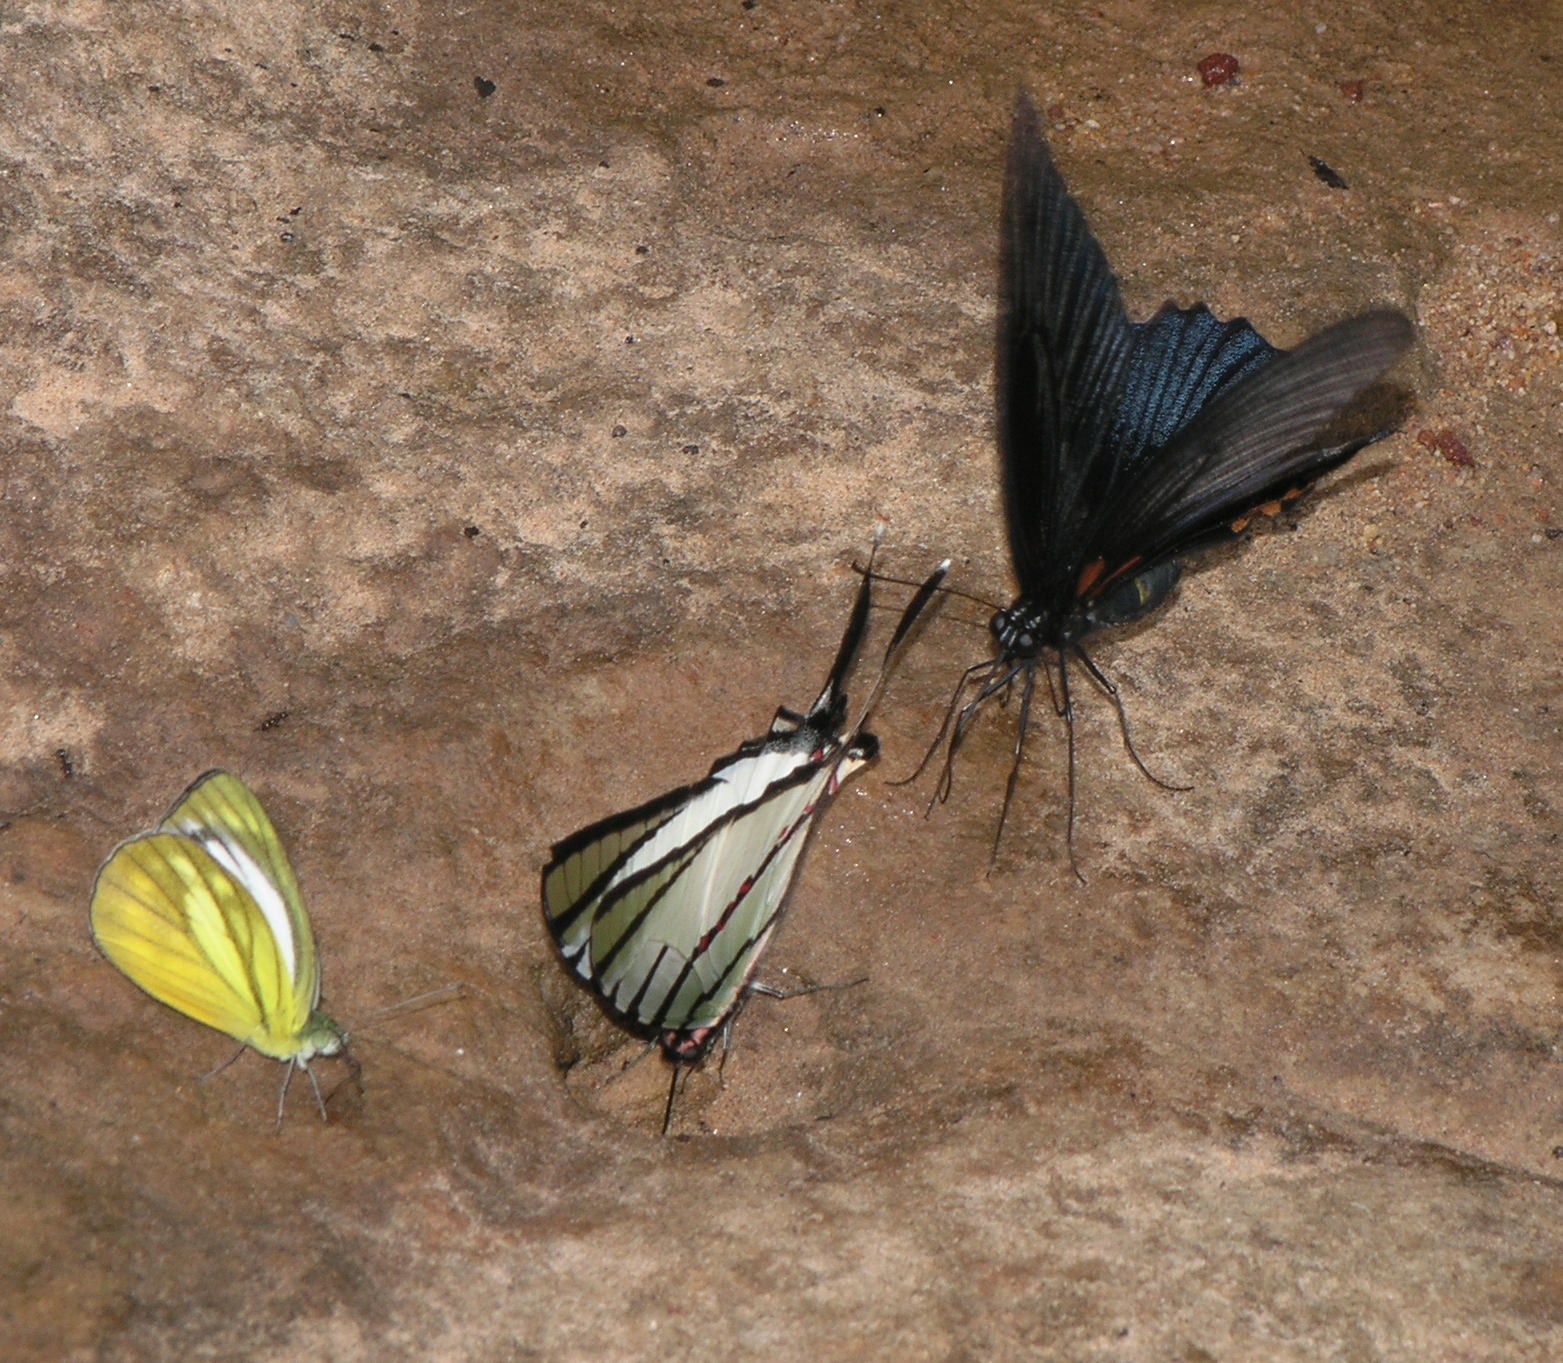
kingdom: Animalia
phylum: Arthropoda
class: Insecta
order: Lepidoptera
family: Papilionidae
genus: Papilio
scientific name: Papilio memnon
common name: Great mormon
